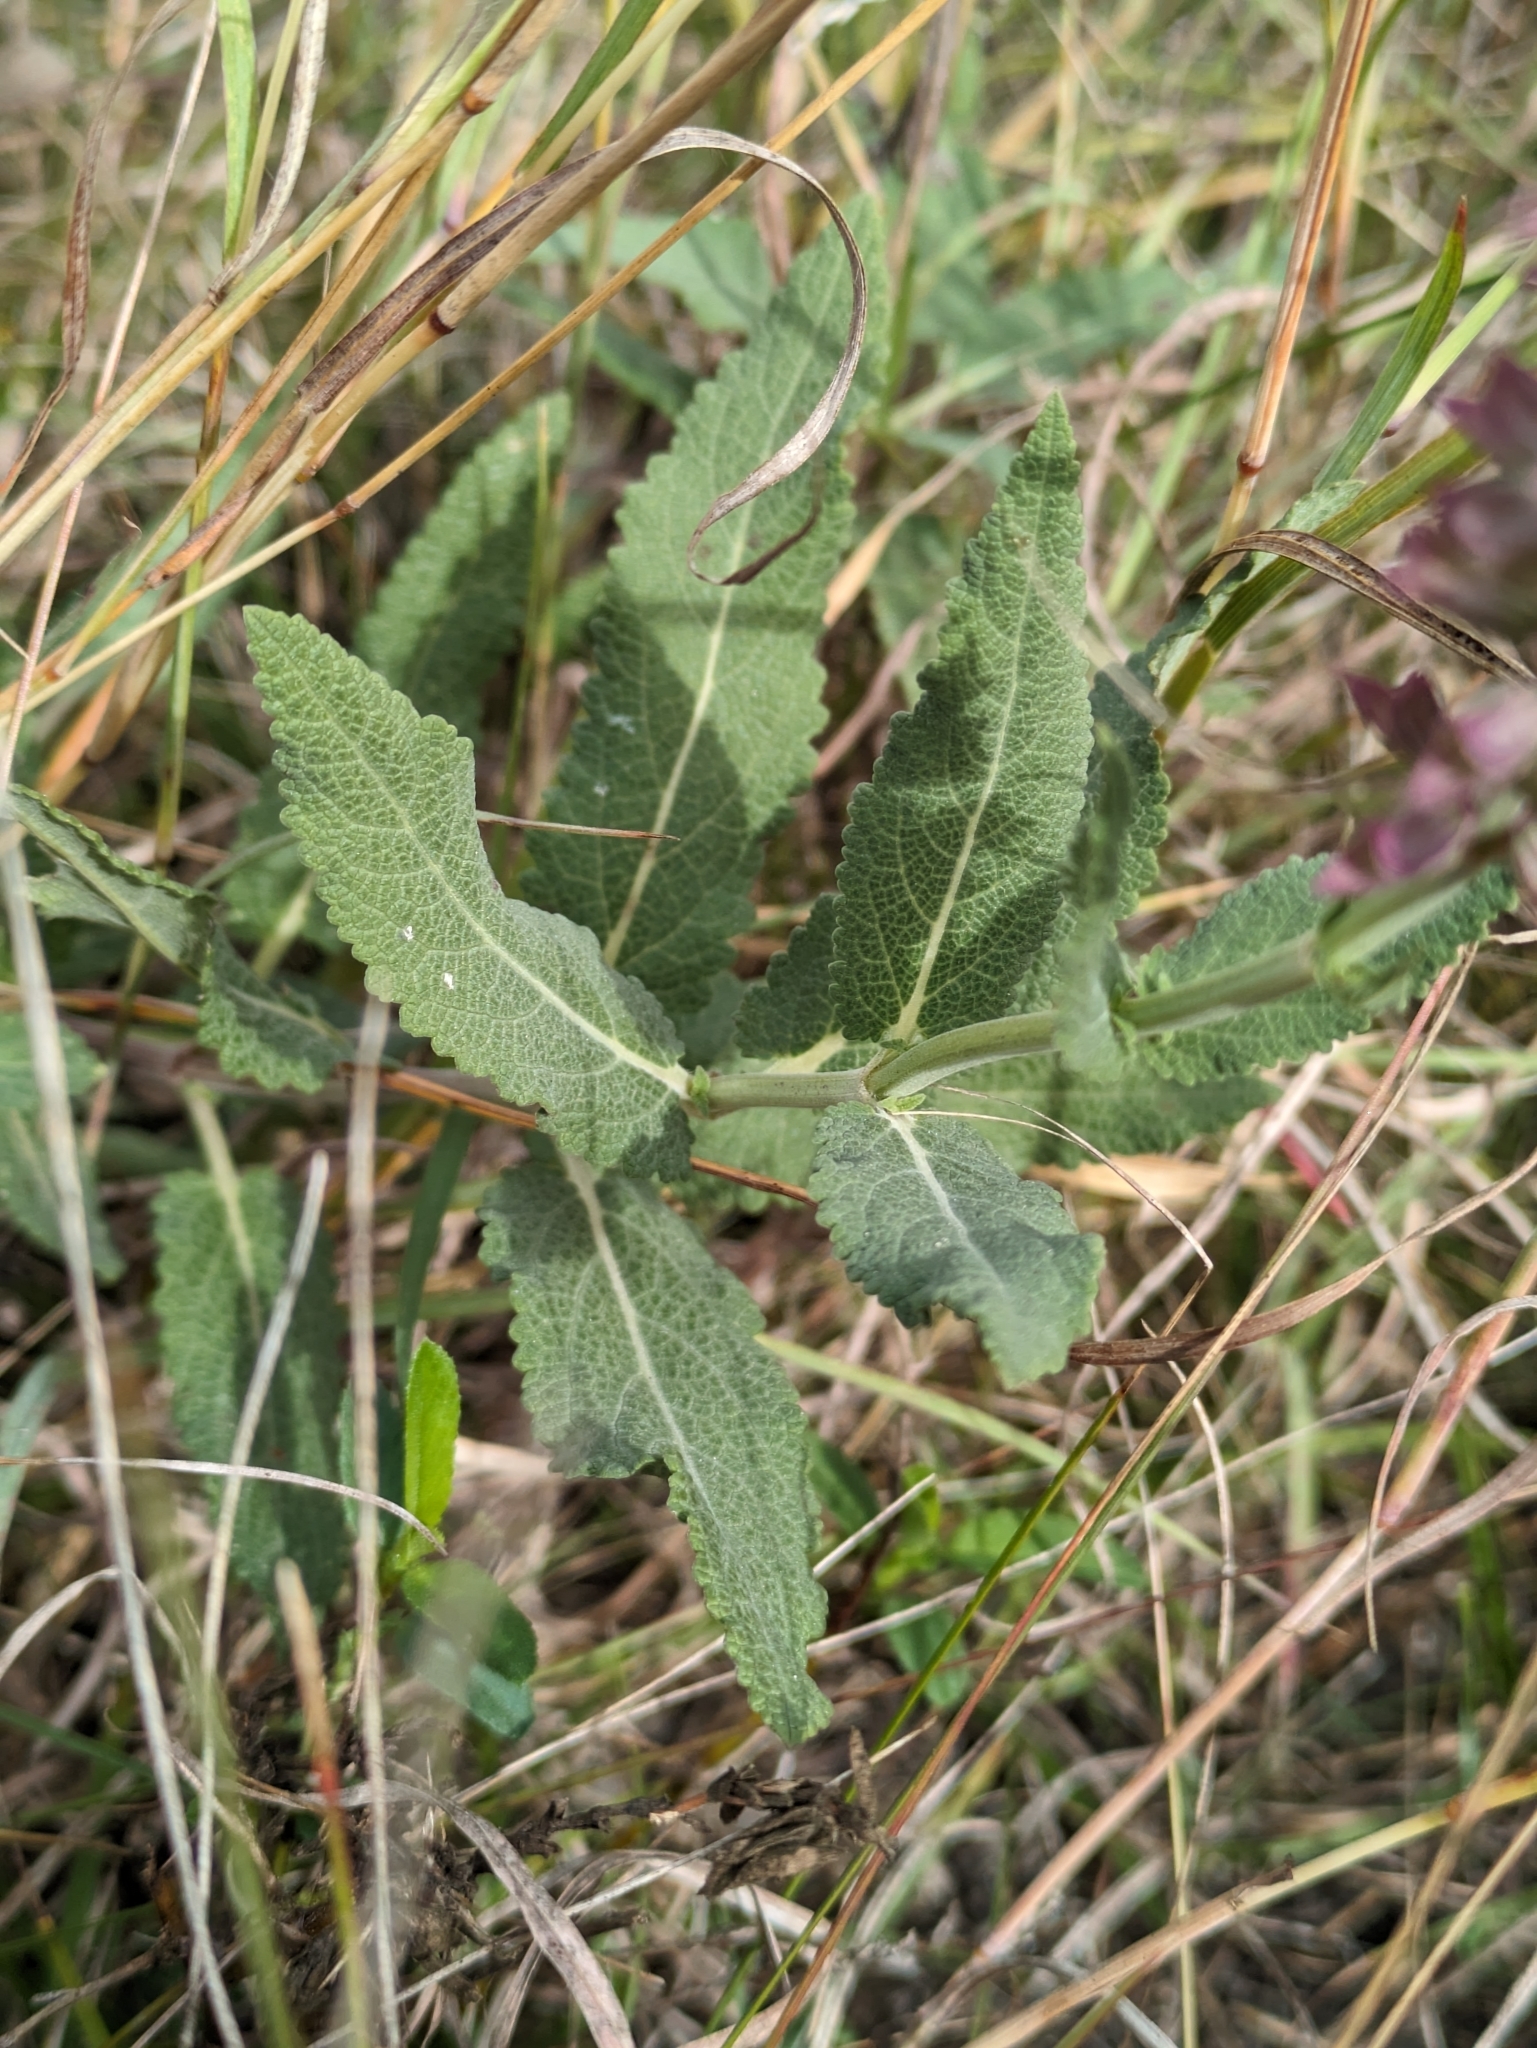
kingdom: Plantae
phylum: Tracheophyta
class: Magnoliopsida
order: Lamiales
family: Lamiaceae
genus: Salvia
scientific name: Salvia nemorosa
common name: Balkan clary
